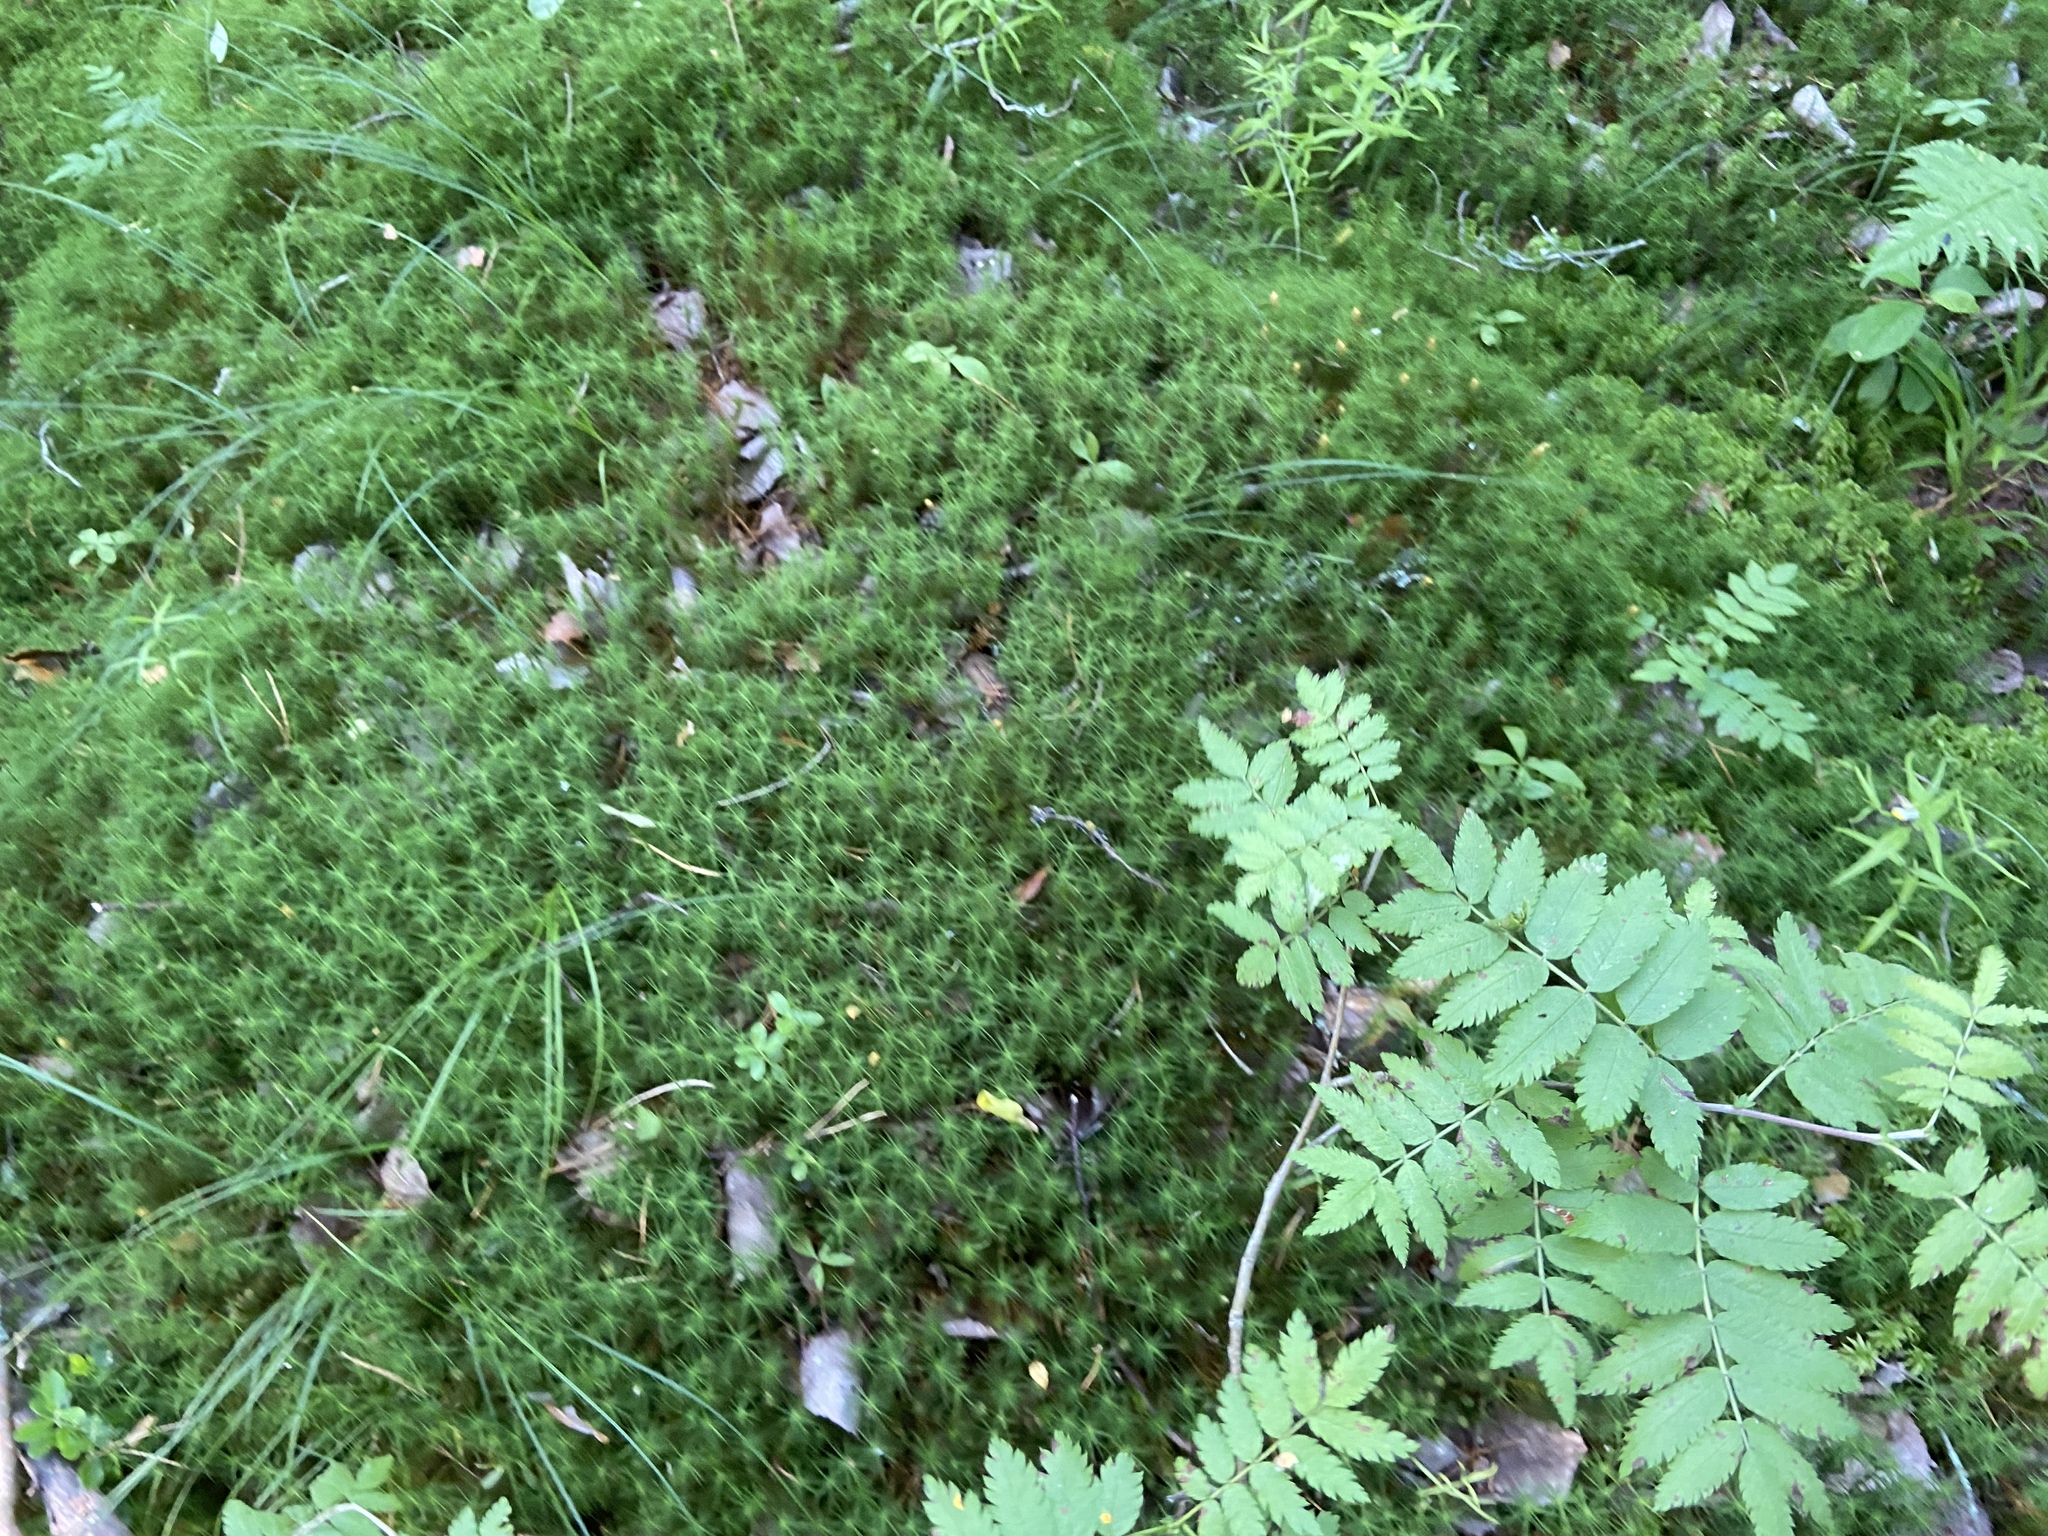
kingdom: Plantae
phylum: Bryophyta
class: Polytrichopsida
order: Polytrichales
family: Polytrichaceae
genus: Polytrichum
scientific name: Polytrichum commune
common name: Common haircap
